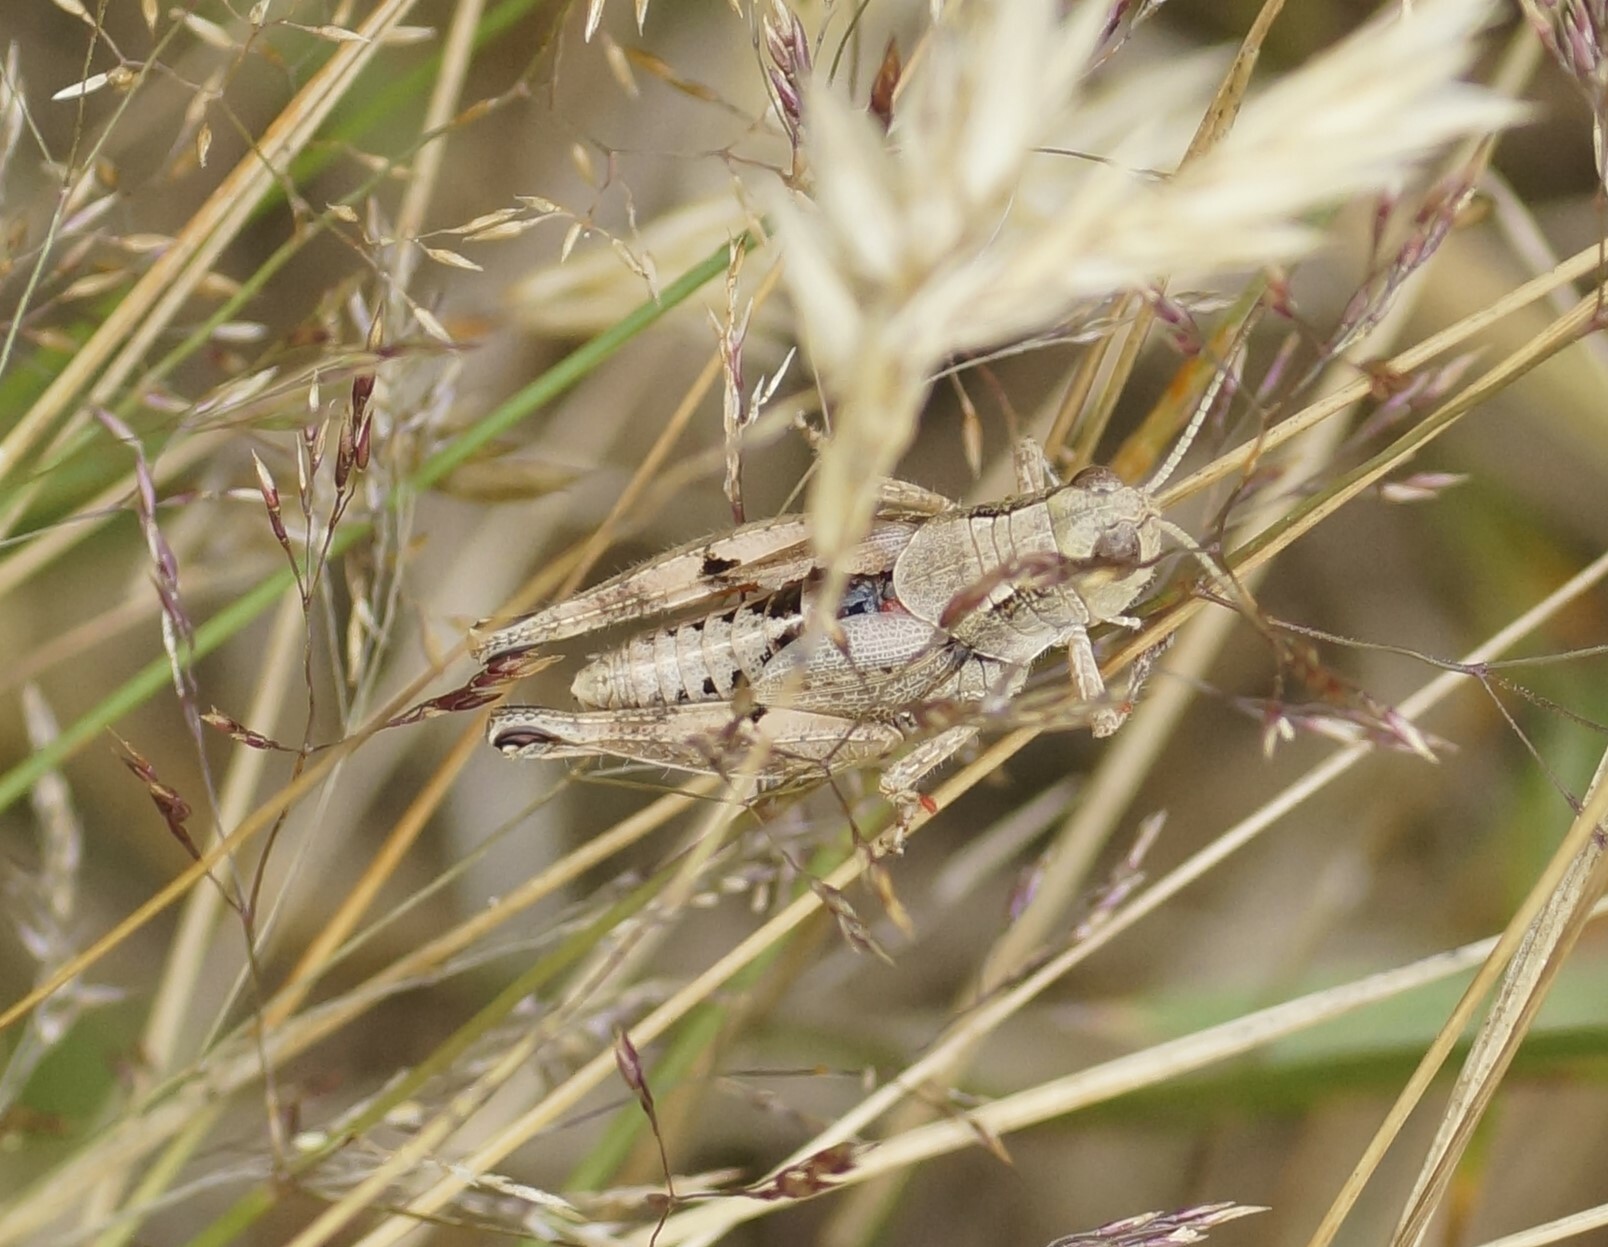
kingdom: Animalia
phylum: Arthropoda
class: Insecta
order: Orthoptera
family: Acrididae
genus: Phaulacridium
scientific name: Phaulacridium vittatum
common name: Wingless grasshopper
